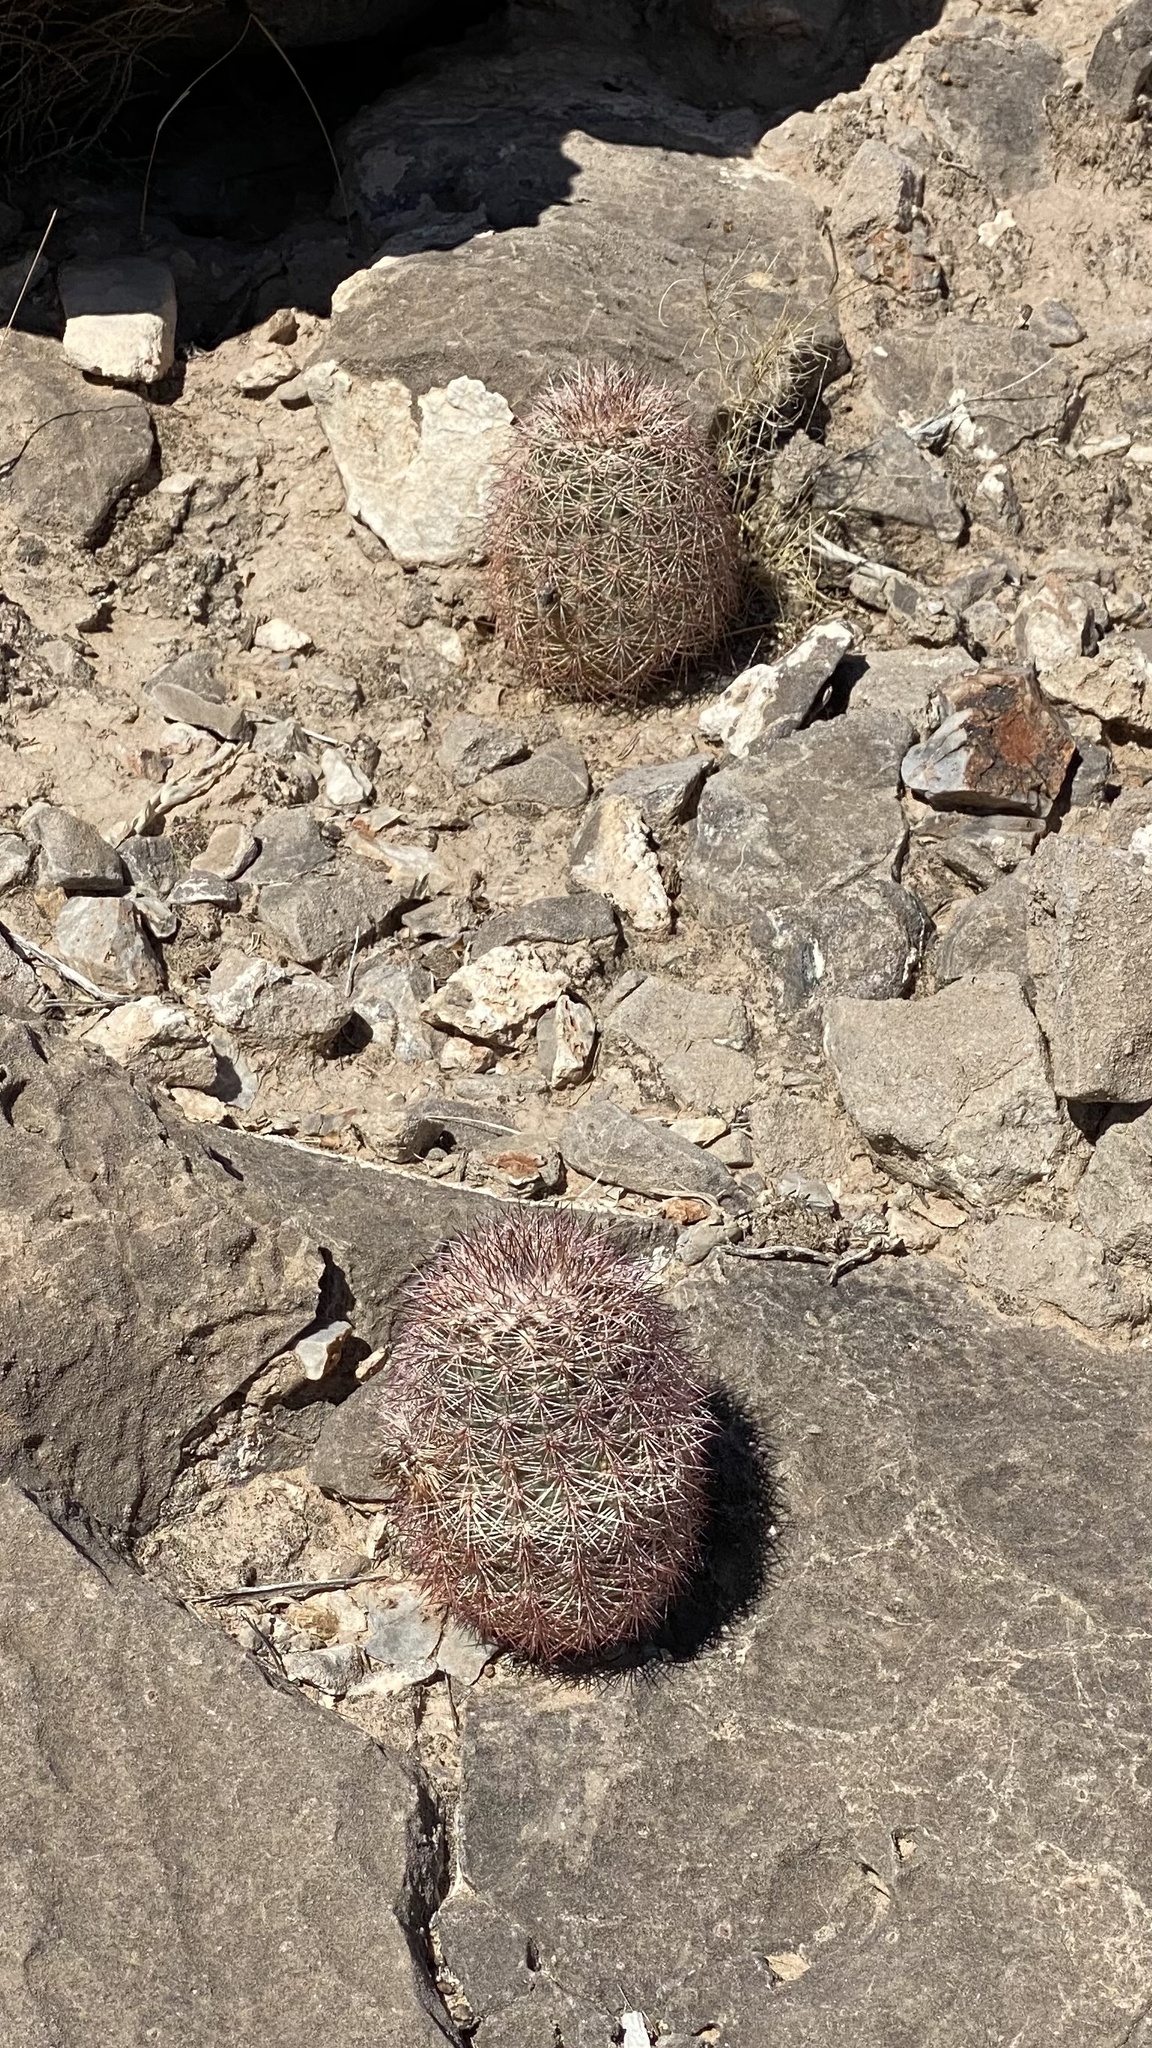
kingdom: Plantae
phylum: Tracheophyta
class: Magnoliopsida
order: Caryophyllales
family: Cactaceae
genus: Echinocereus
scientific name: Echinocereus dasyacanthus
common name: Spiny hedgehog cactus
